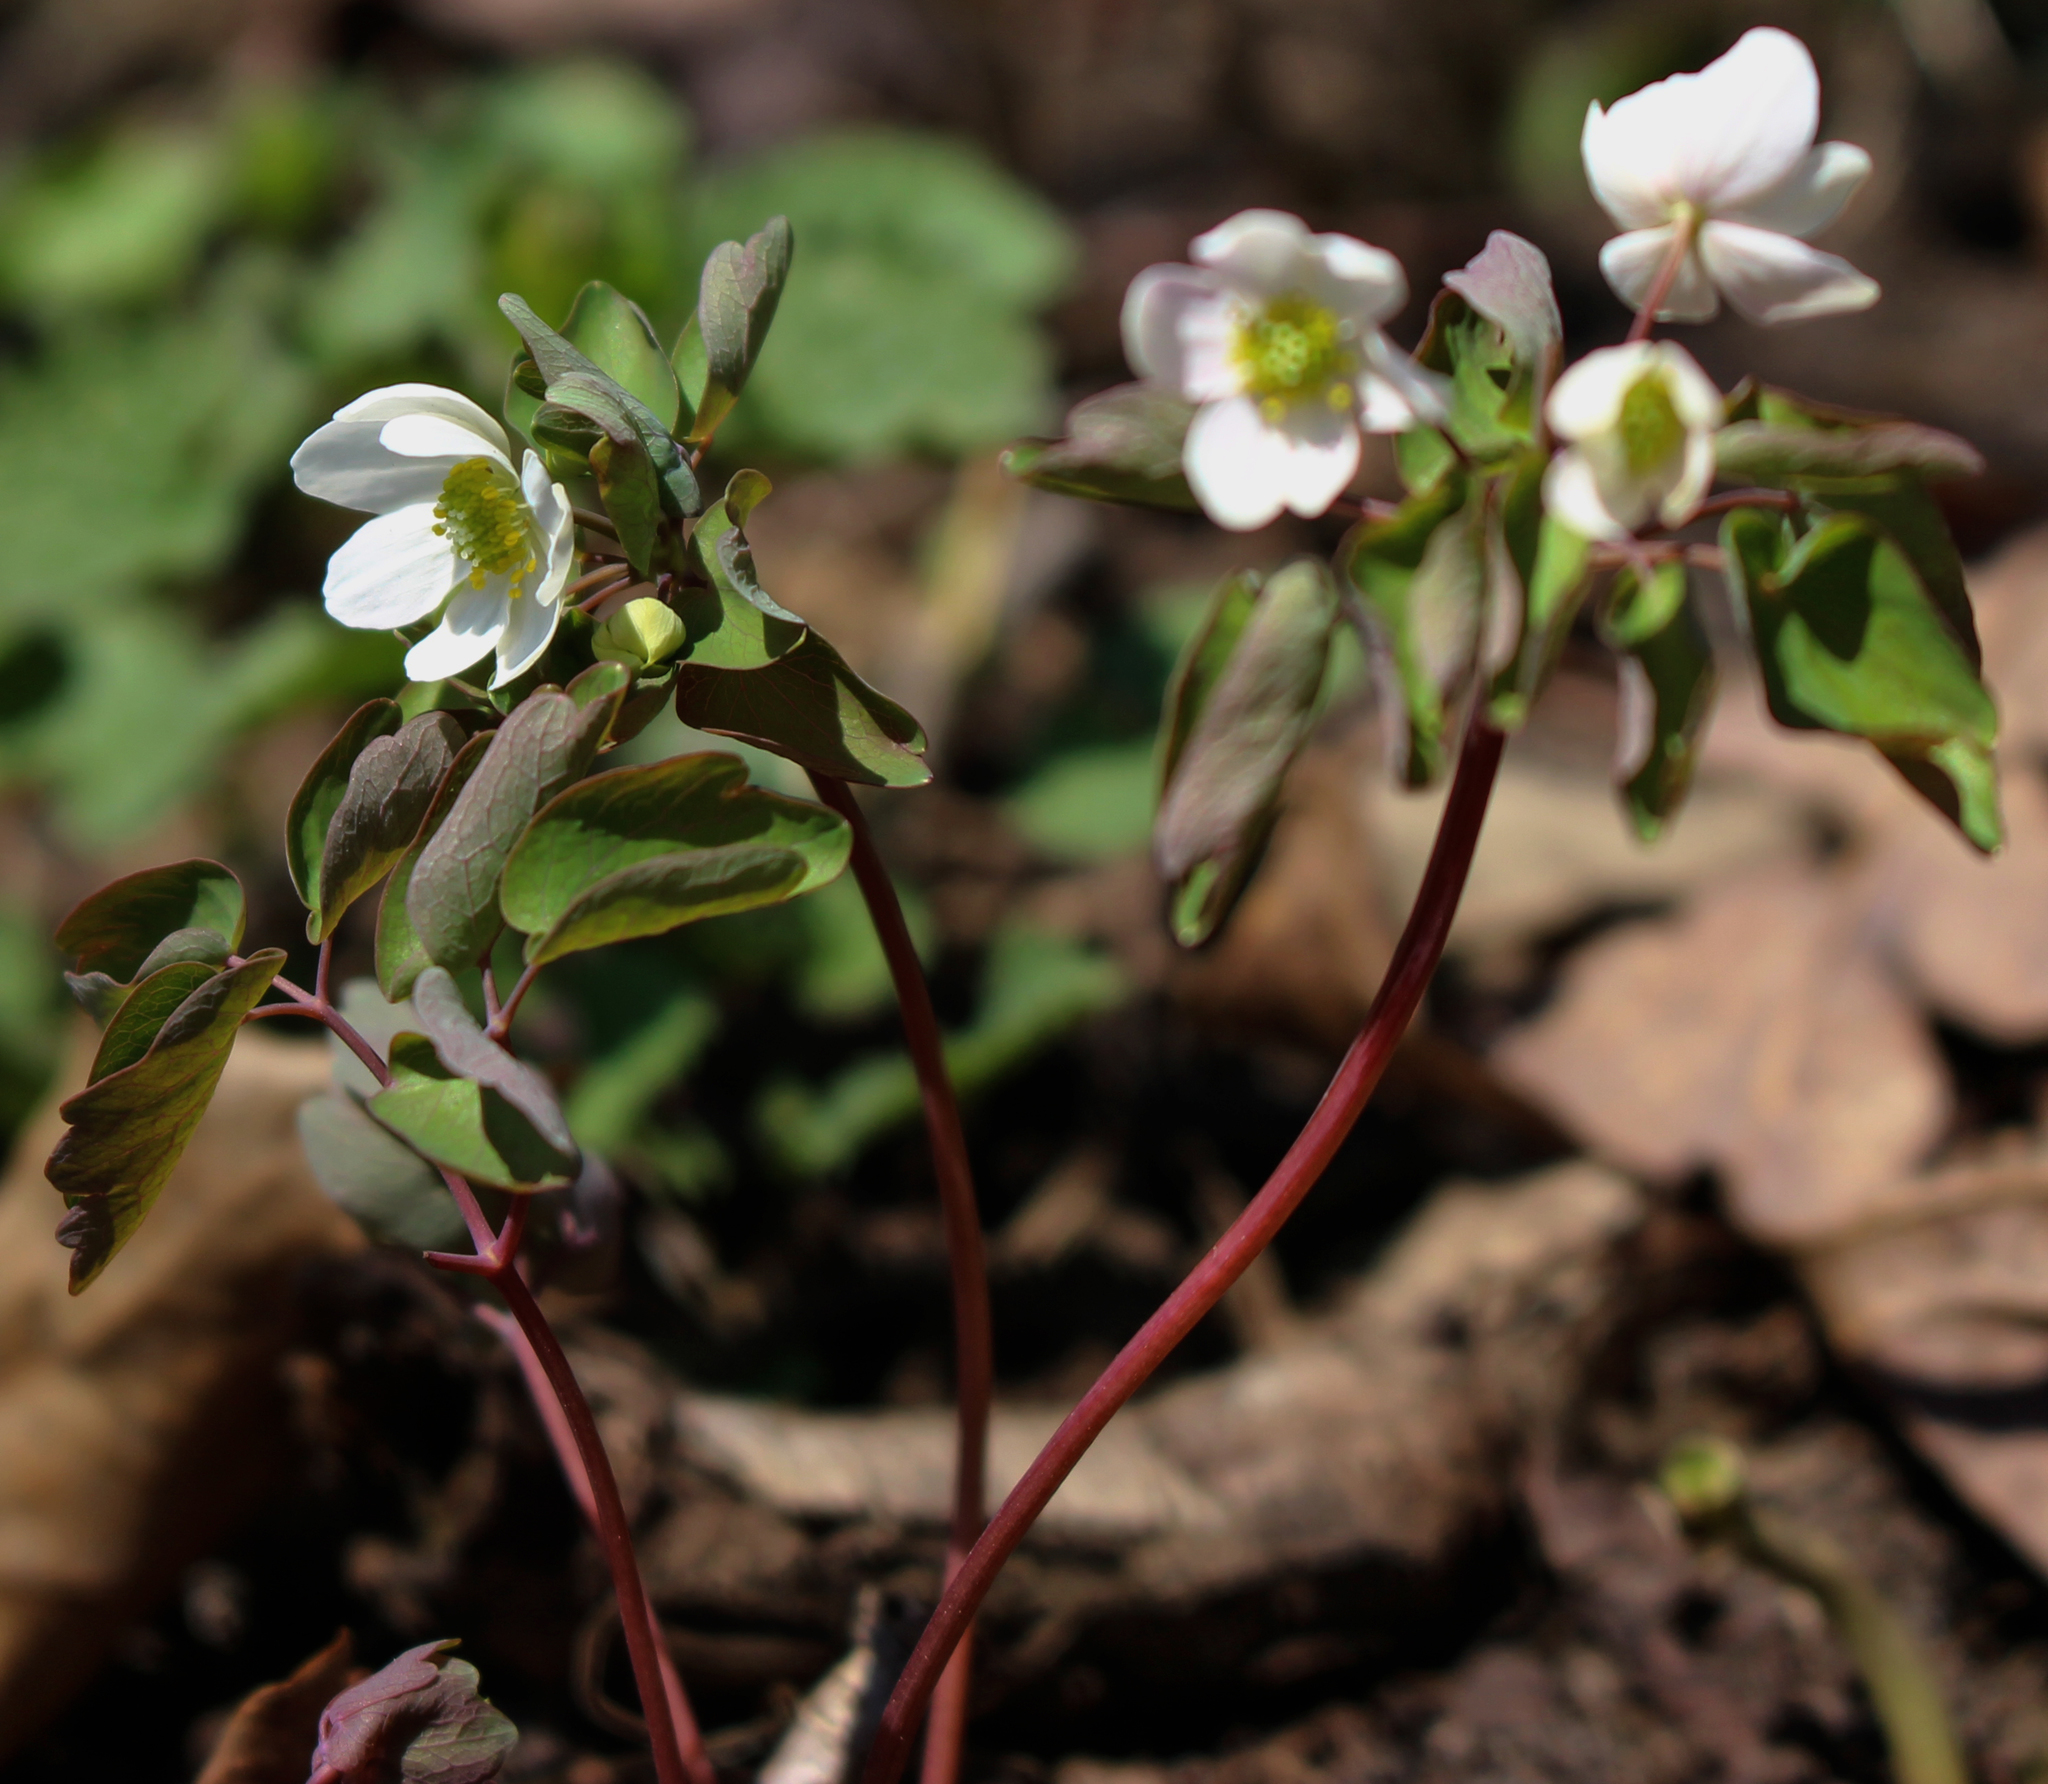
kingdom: Plantae
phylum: Tracheophyta
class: Magnoliopsida
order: Ranunculales
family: Ranunculaceae
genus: Thalictrum
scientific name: Thalictrum thalictroides
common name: Rue-anemone
